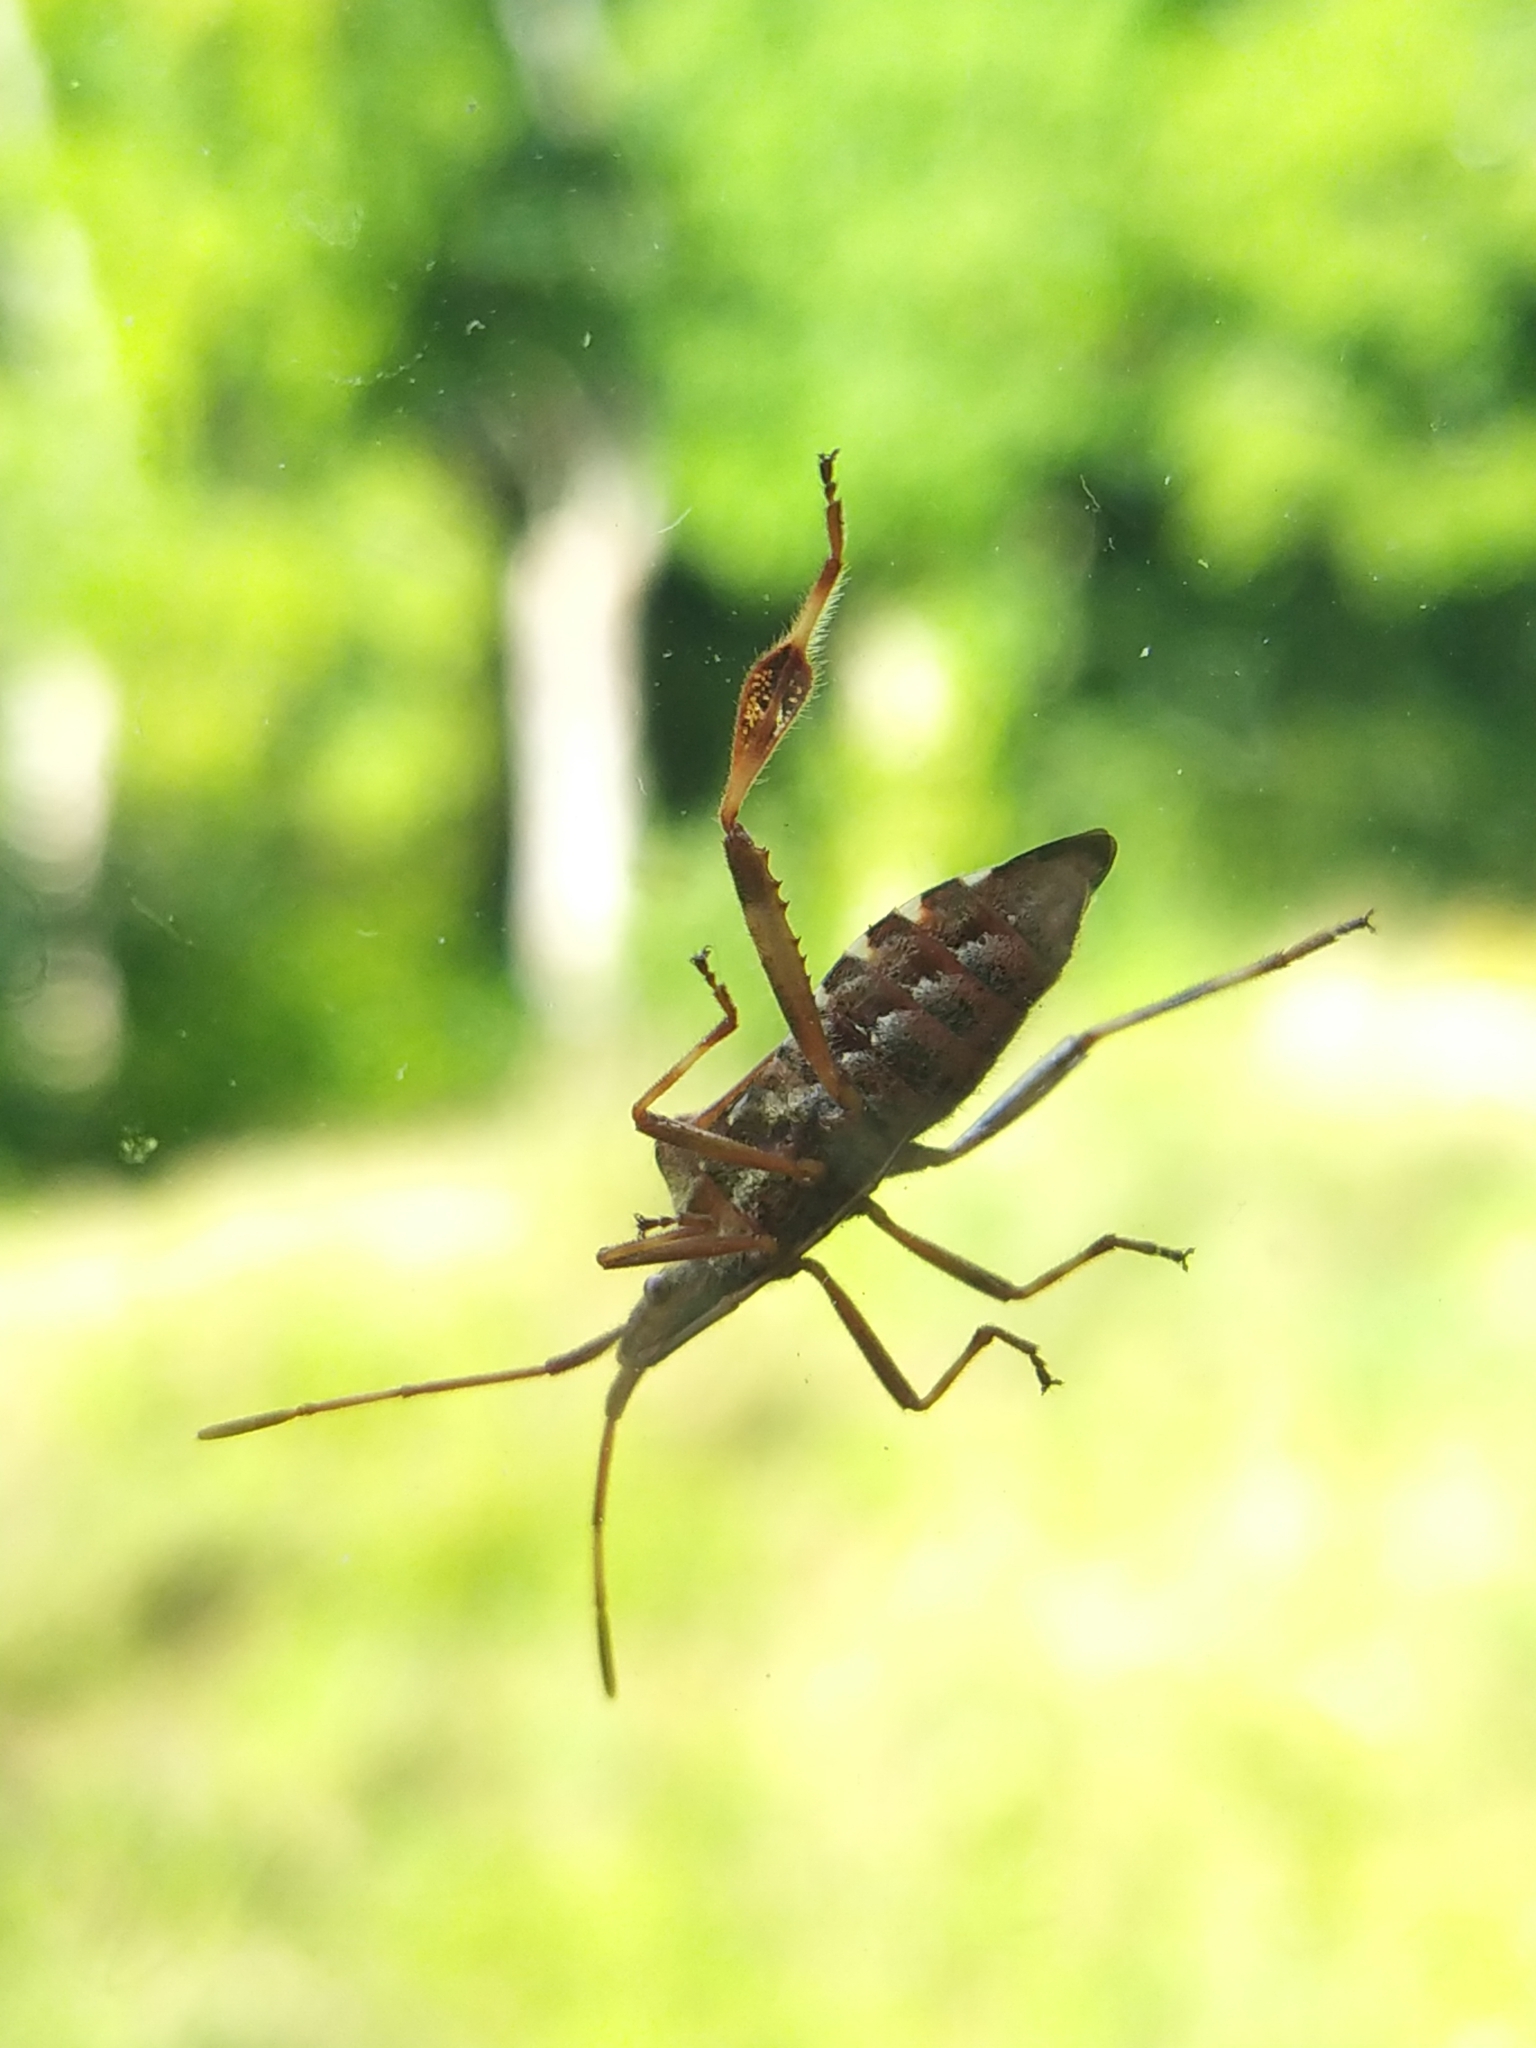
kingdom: Animalia
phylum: Arthropoda
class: Insecta
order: Hemiptera
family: Coreidae
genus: Leptoglossus
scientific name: Leptoglossus occidentalis
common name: Western conifer-seed bug
